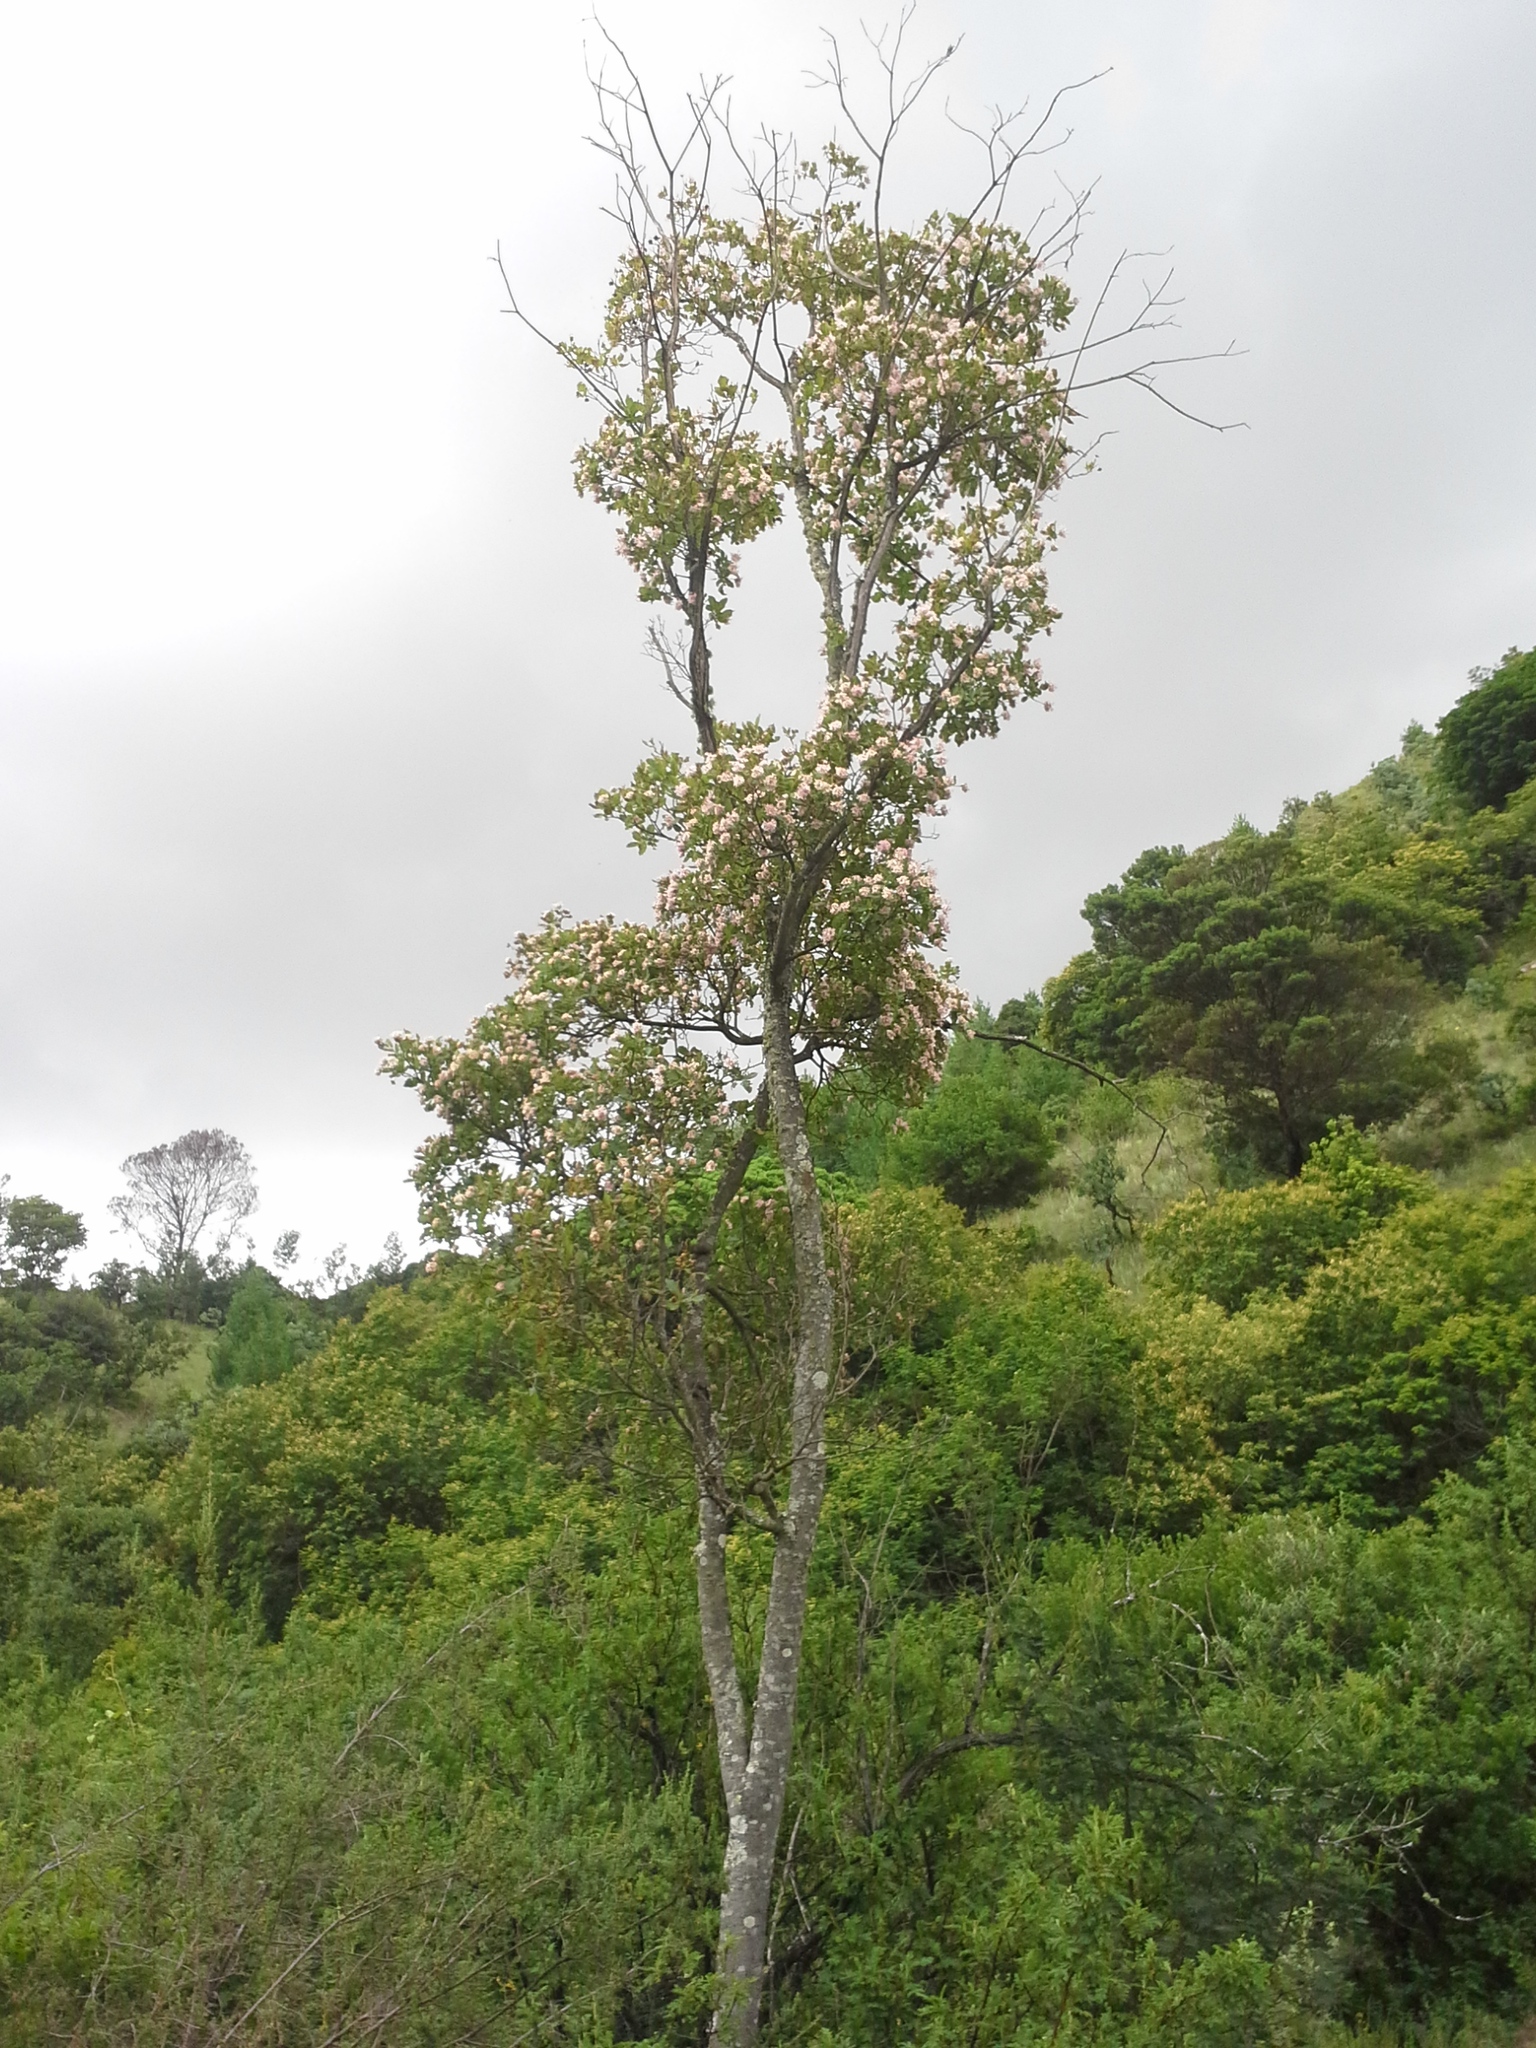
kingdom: Plantae
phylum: Tracheophyta
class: Magnoliopsida
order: Malvales
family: Thymelaeaceae
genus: Dais
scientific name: Dais cotinifolia
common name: Pompon tree
